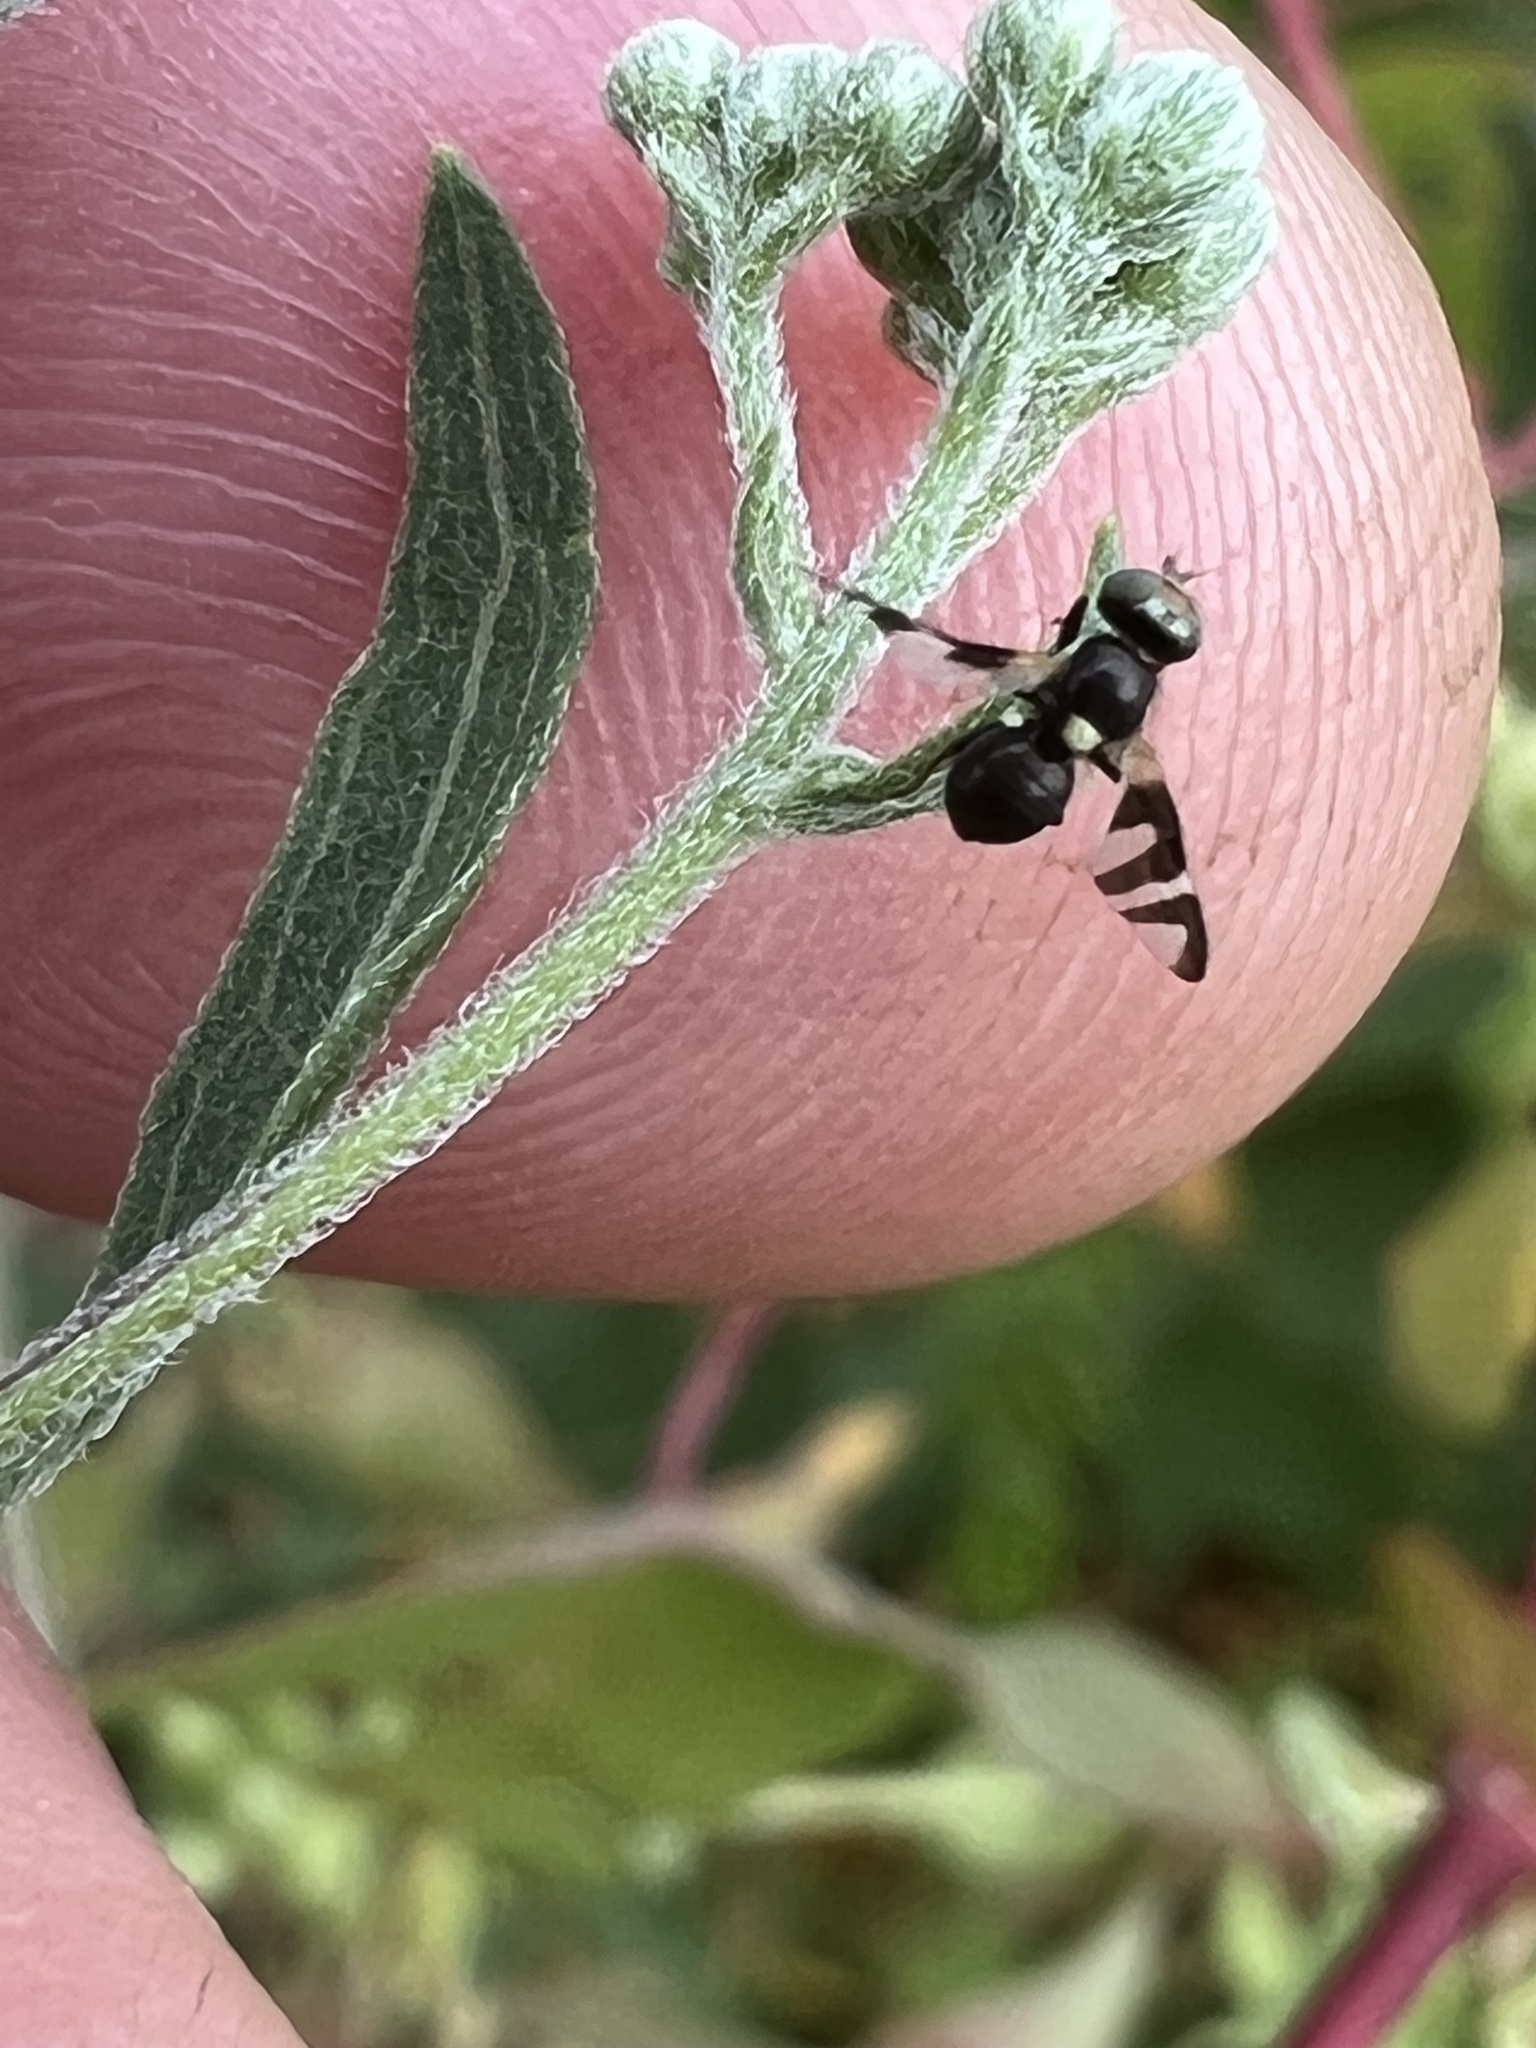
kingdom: Animalia
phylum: Arthropoda
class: Insecta
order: Diptera
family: Tephritidae
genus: Urophora
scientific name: Urophora quadrifasciata
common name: Knapweed seedhead fly
